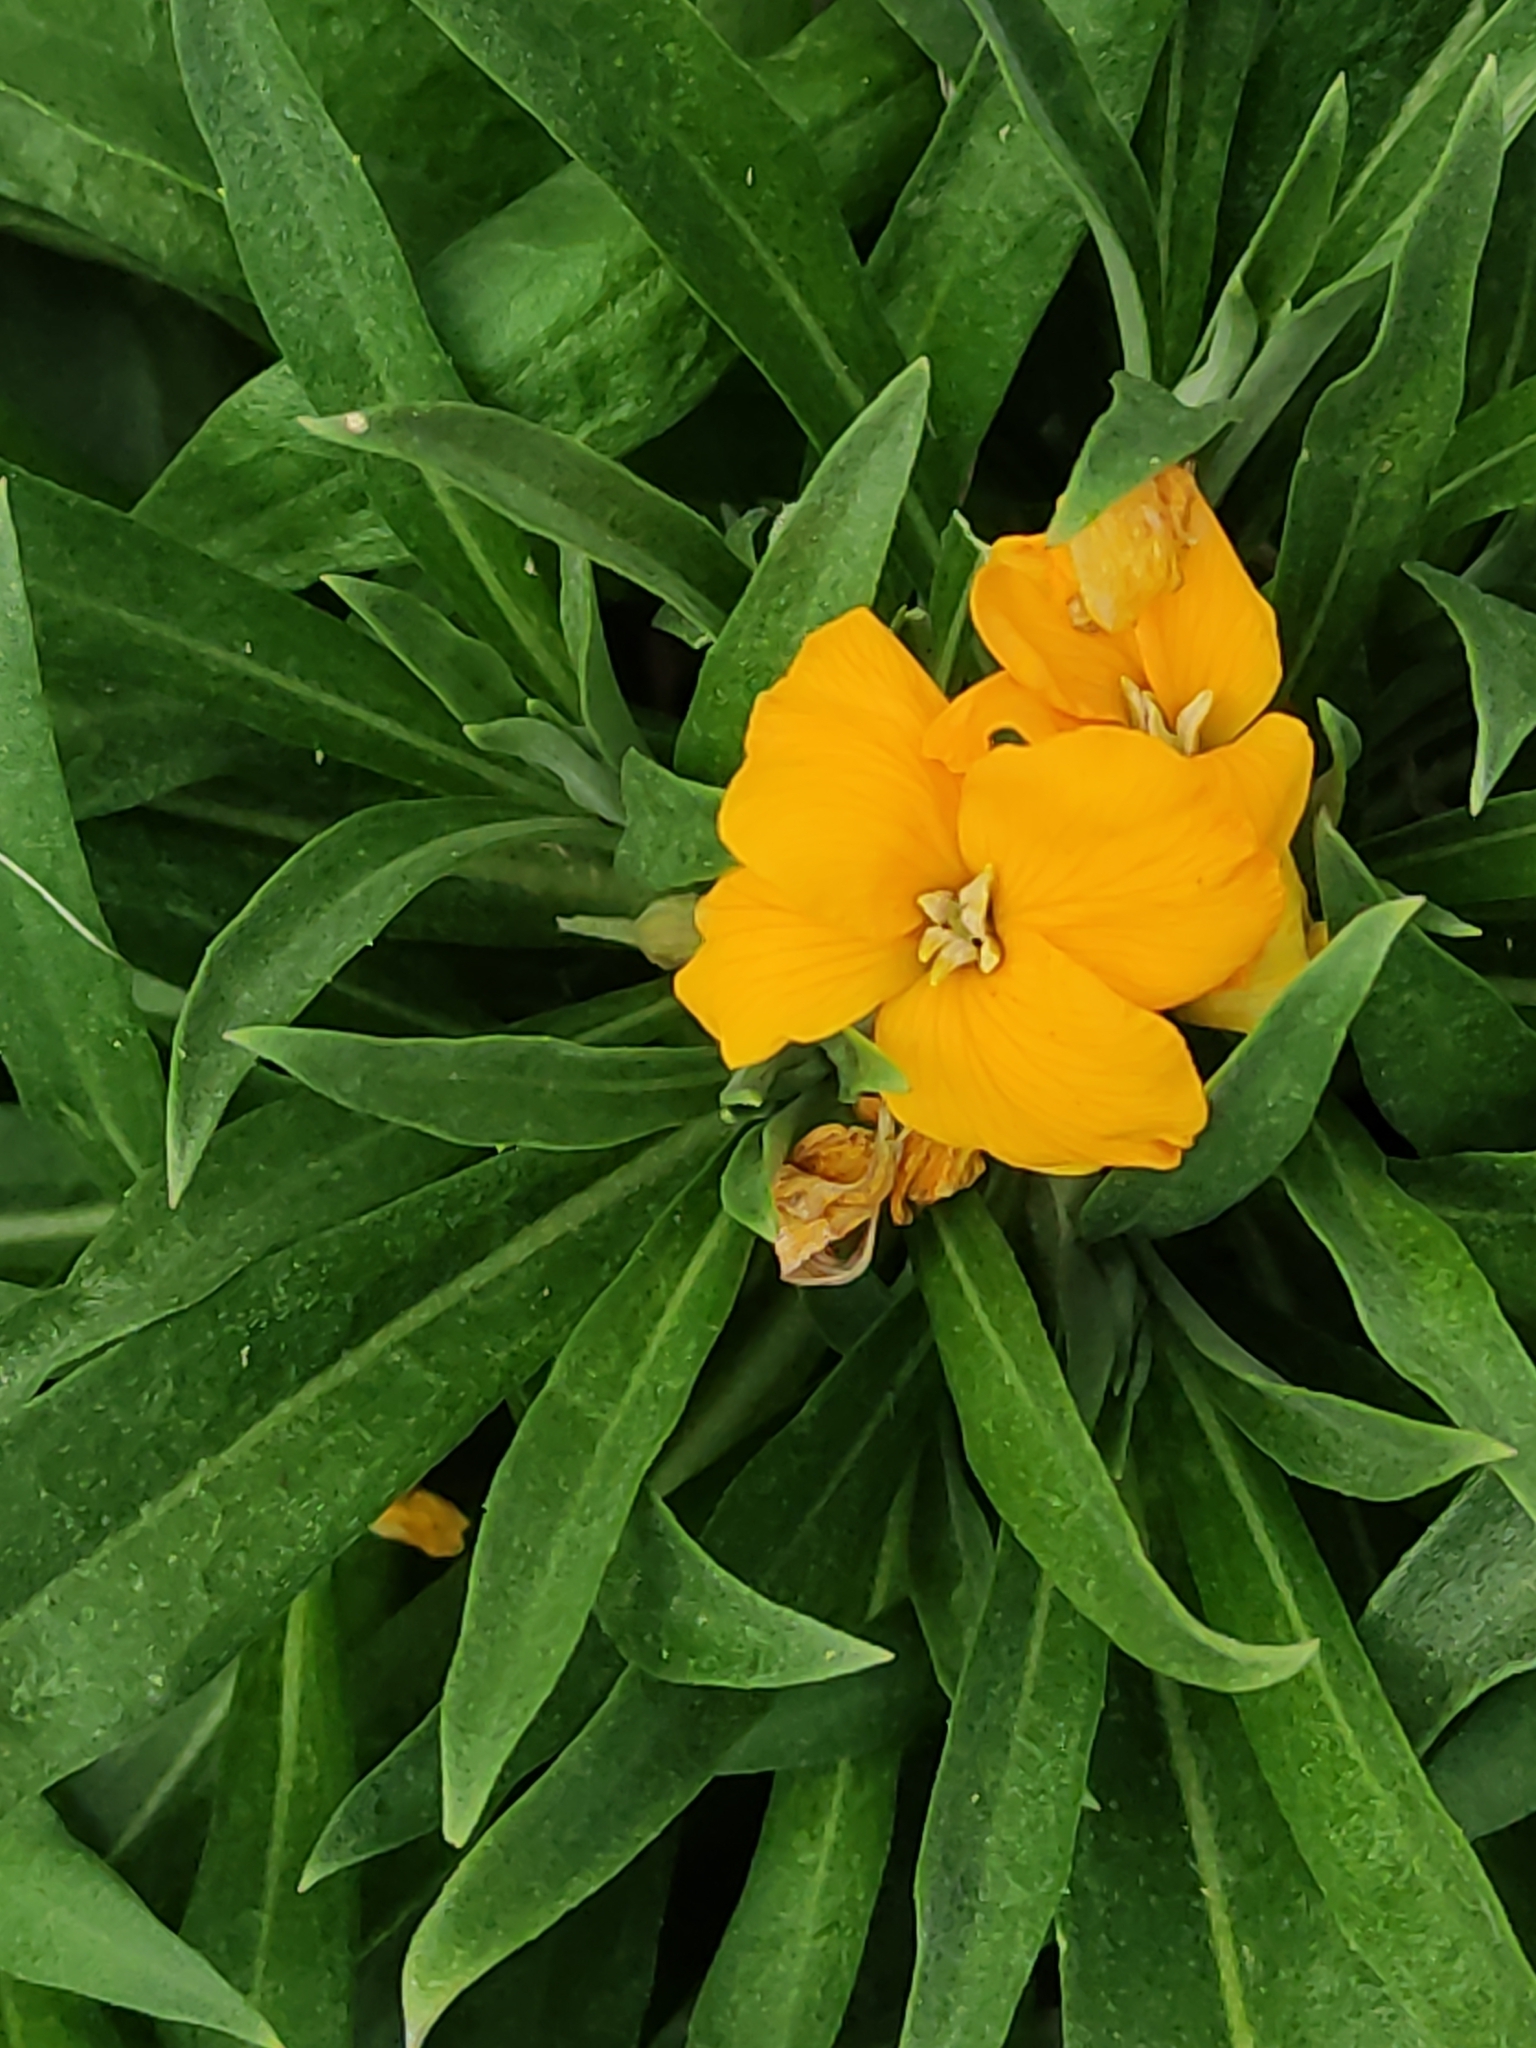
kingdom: Plantae
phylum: Tracheophyta
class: Magnoliopsida
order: Brassicales
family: Brassicaceae
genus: Erysimum
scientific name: Erysimum cheiri
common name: Wallflower
